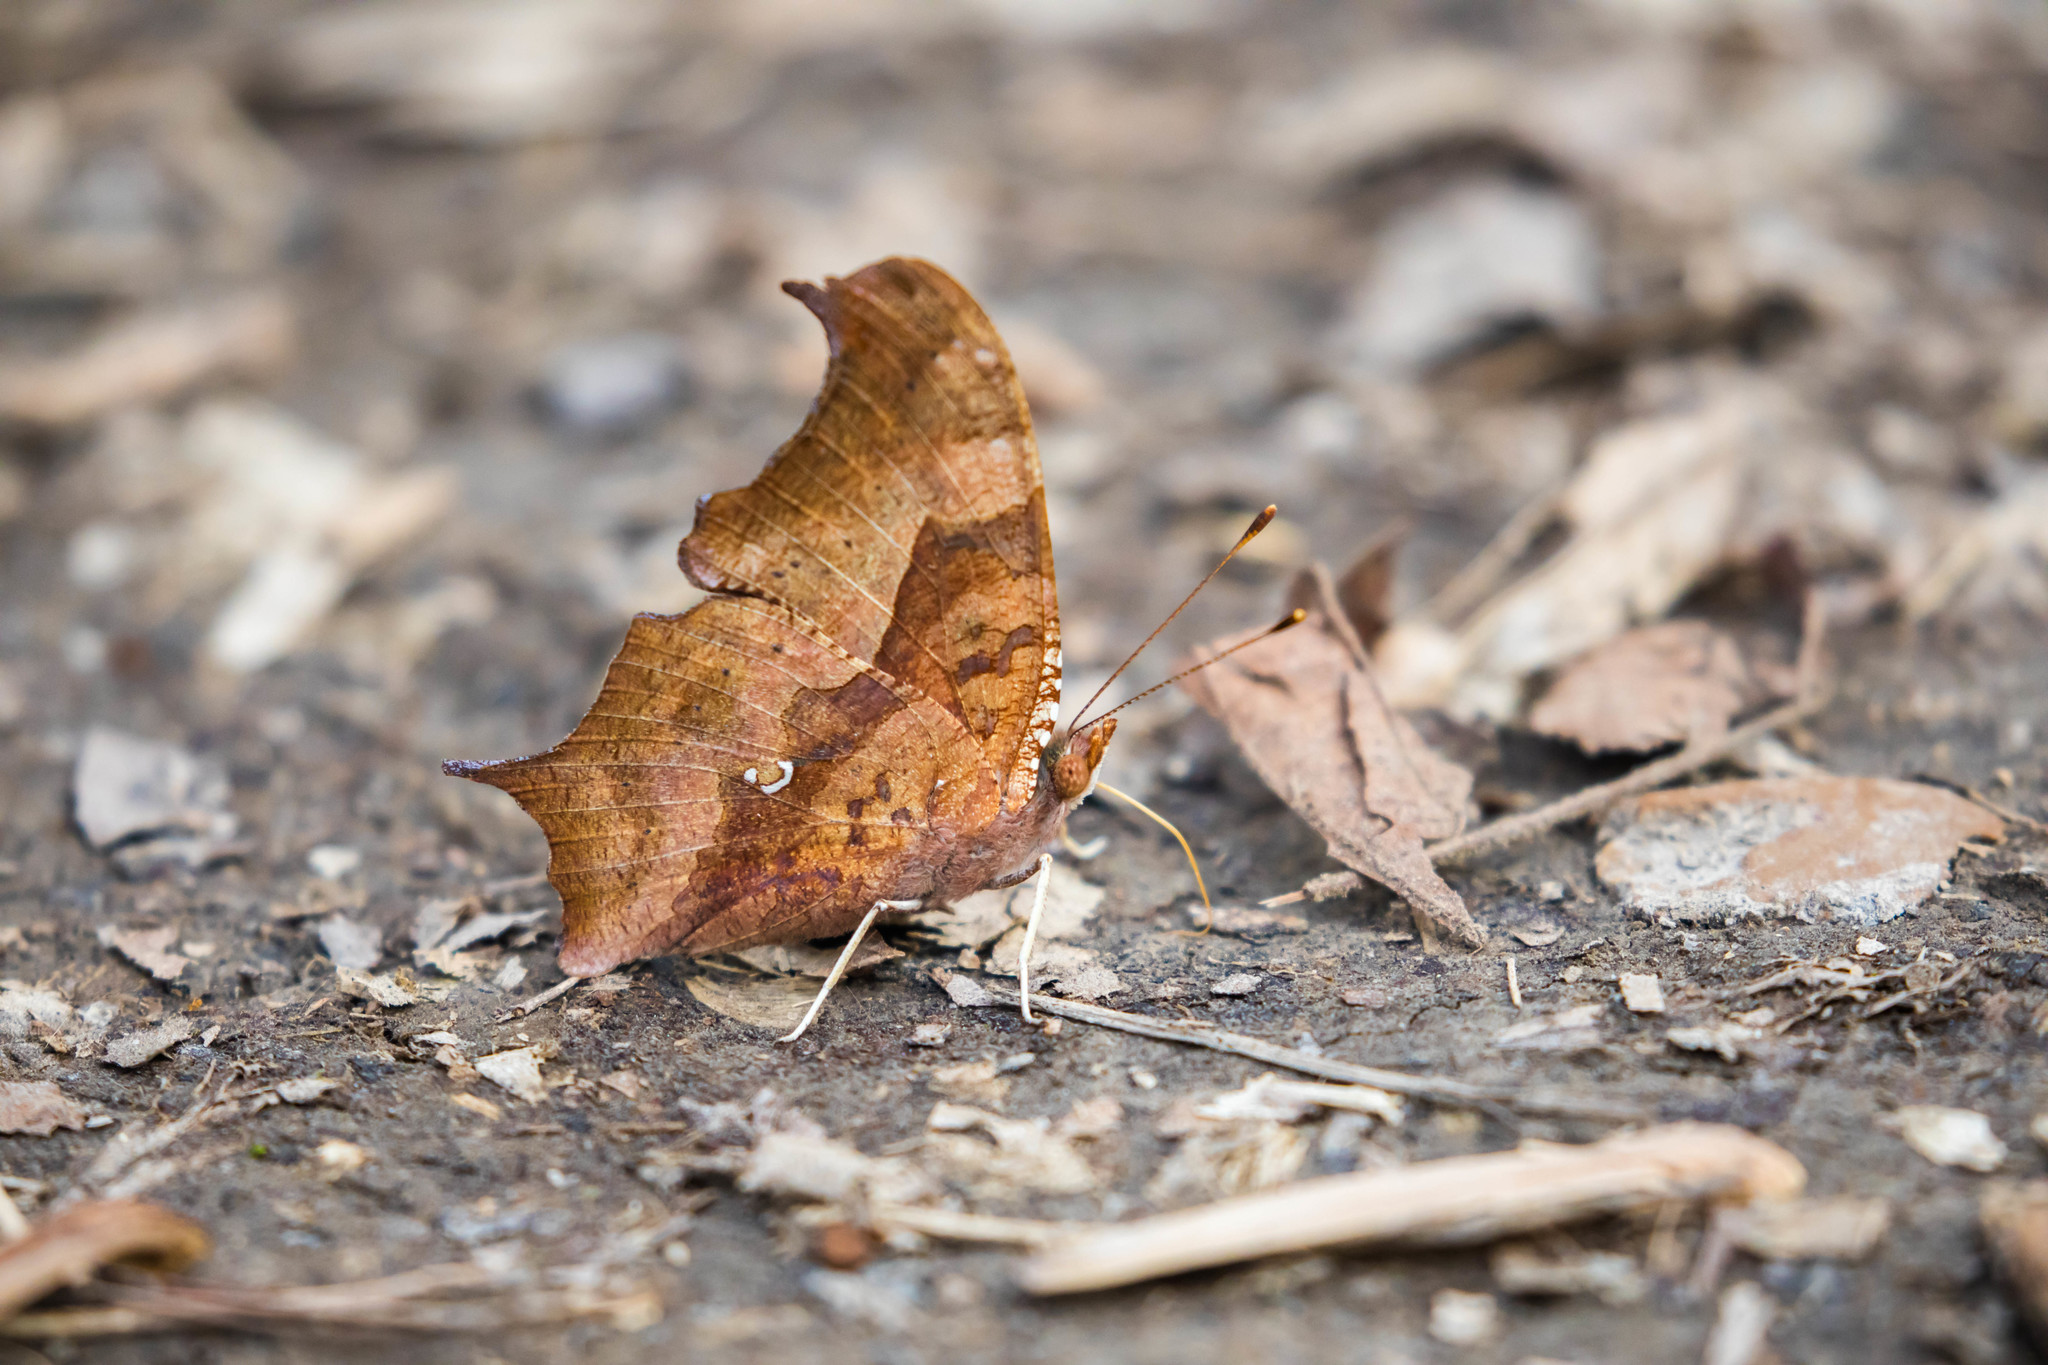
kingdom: Animalia
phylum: Arthropoda
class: Insecta
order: Lepidoptera
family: Nymphalidae
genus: Polygonia
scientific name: Polygonia interrogationis
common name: Question mark
